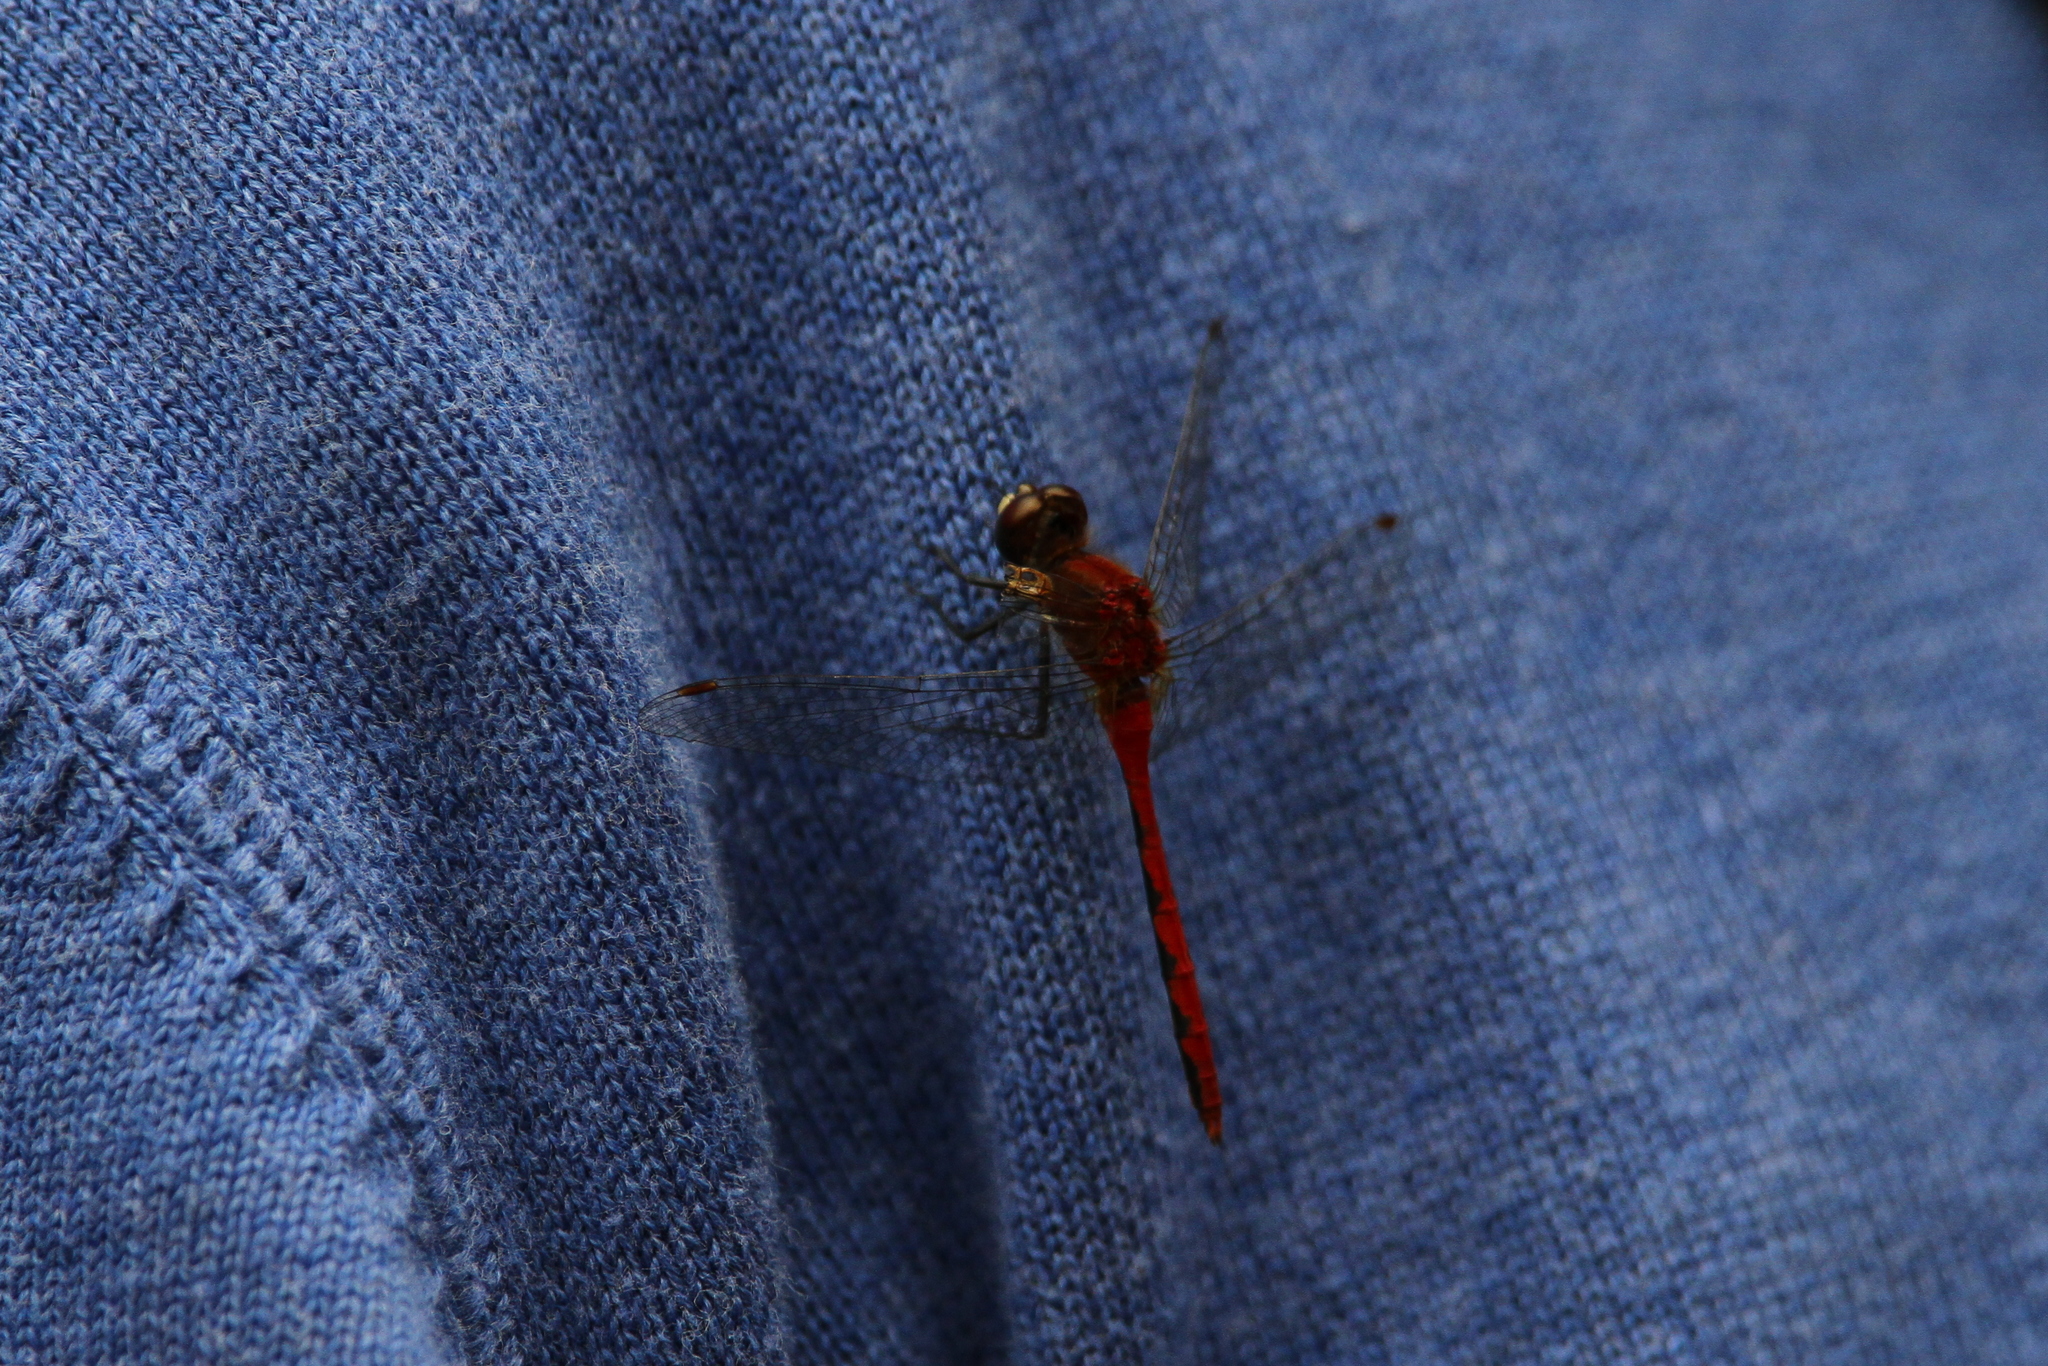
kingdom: Animalia
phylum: Arthropoda
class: Insecta
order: Odonata
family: Libellulidae
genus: Sympetrum
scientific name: Sympetrum obtrusum
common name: White-faced meadowhawk
